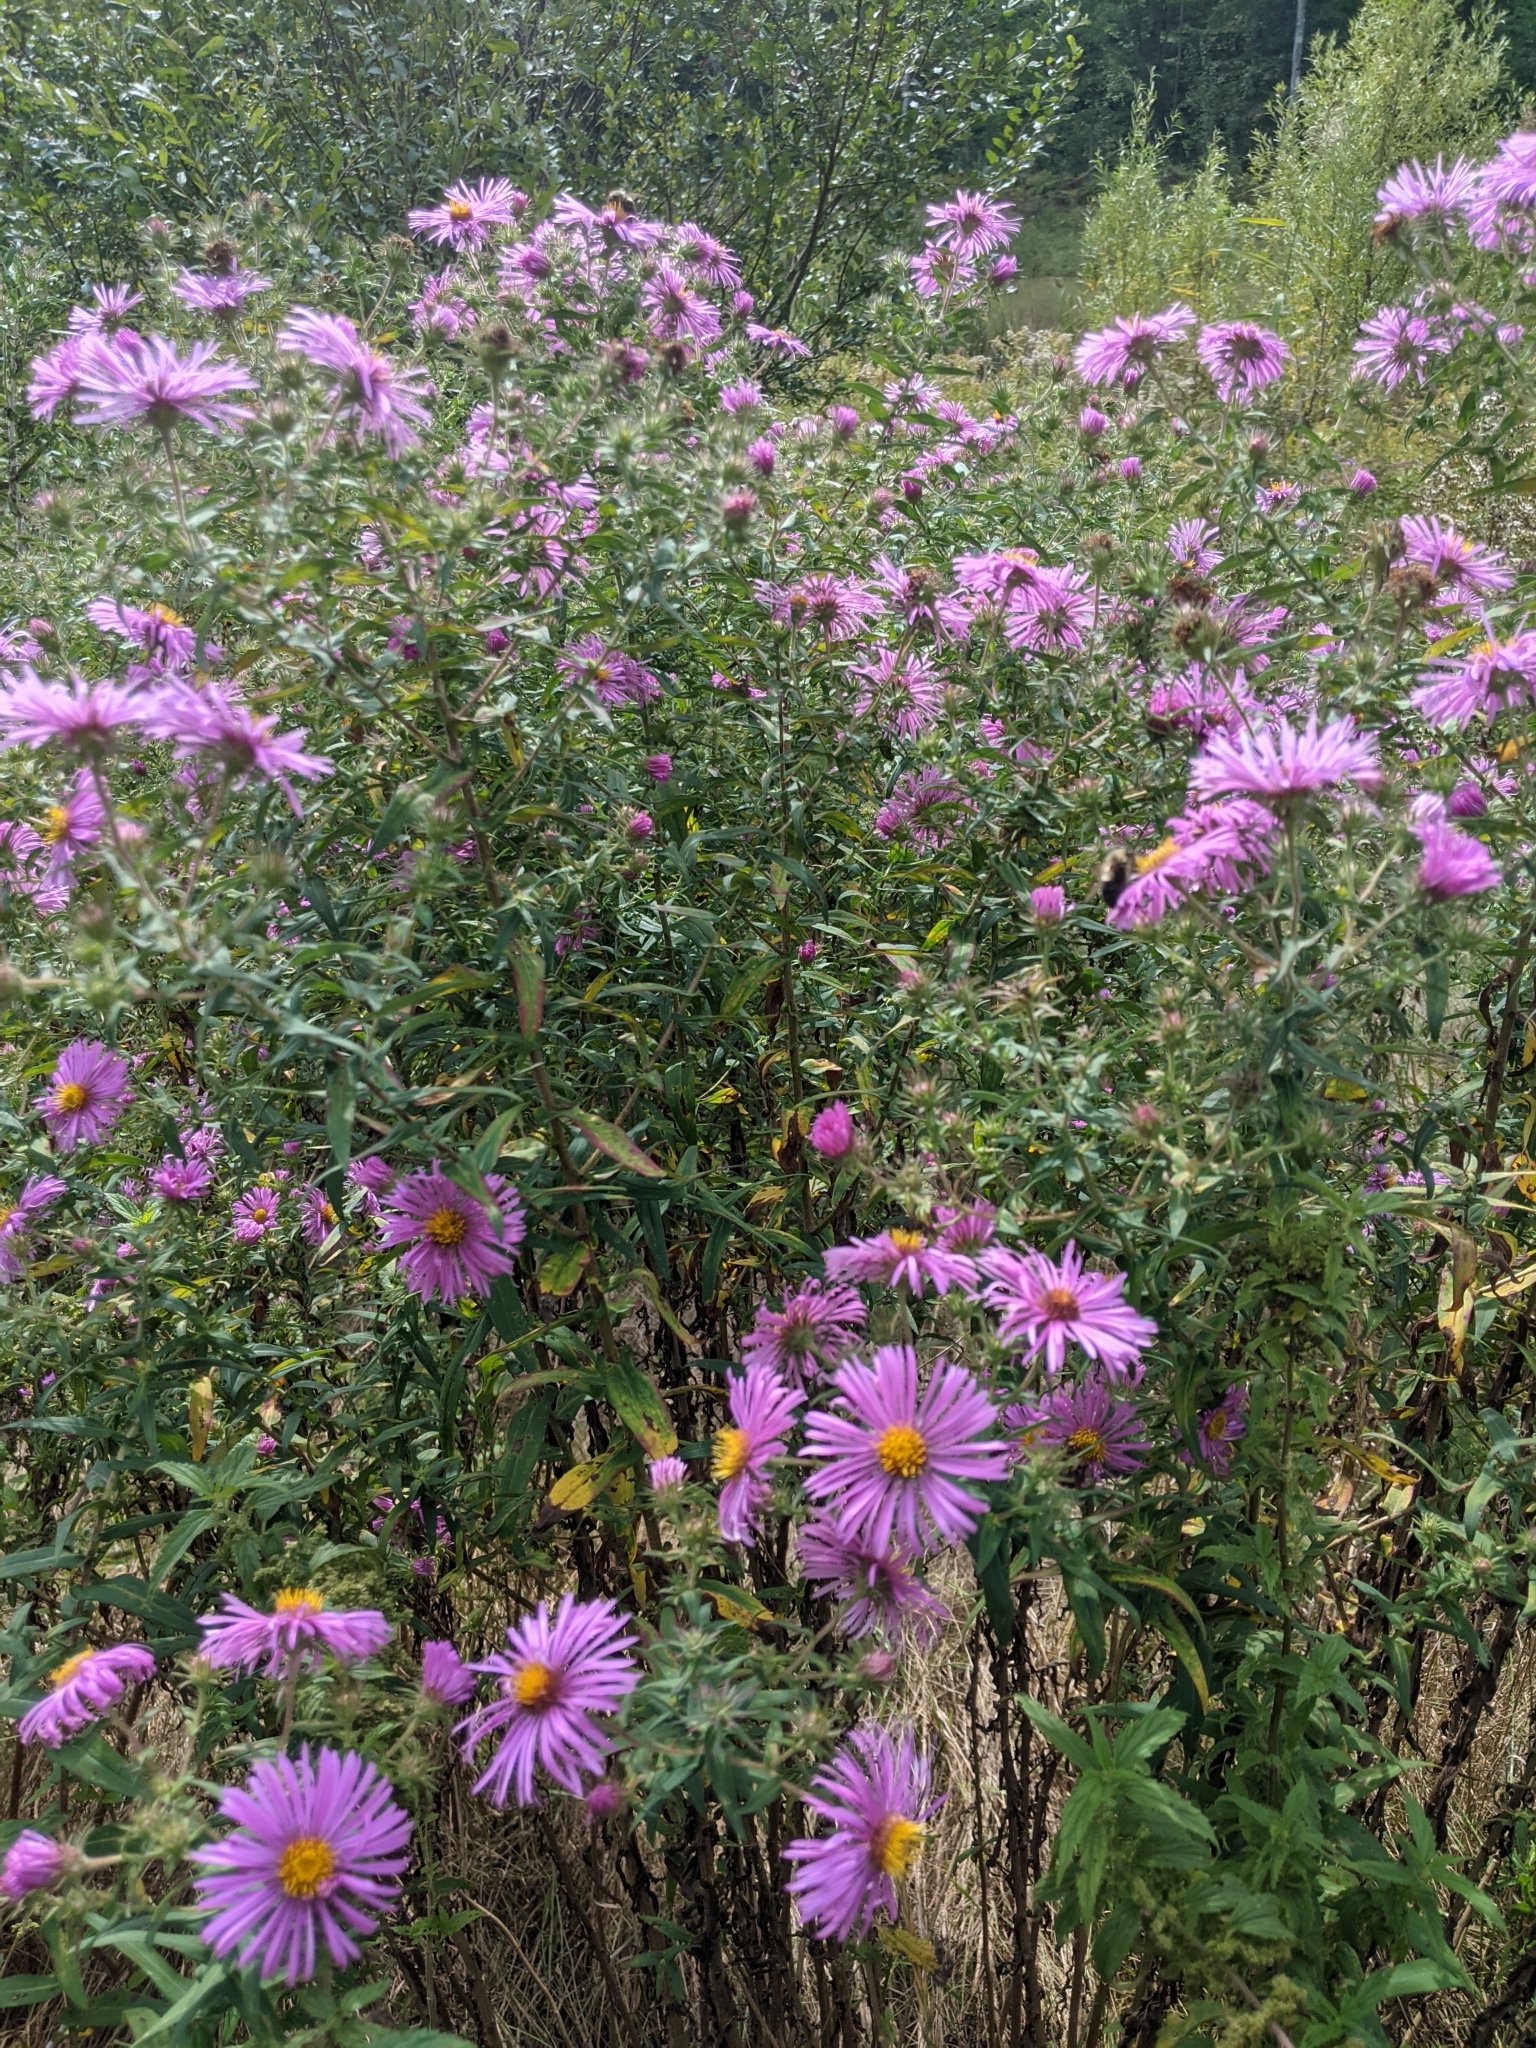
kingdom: Plantae
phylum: Tracheophyta
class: Magnoliopsida
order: Asterales
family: Asteraceae
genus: Symphyotrichum
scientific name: Symphyotrichum novae-angliae
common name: Michaelmas daisy
